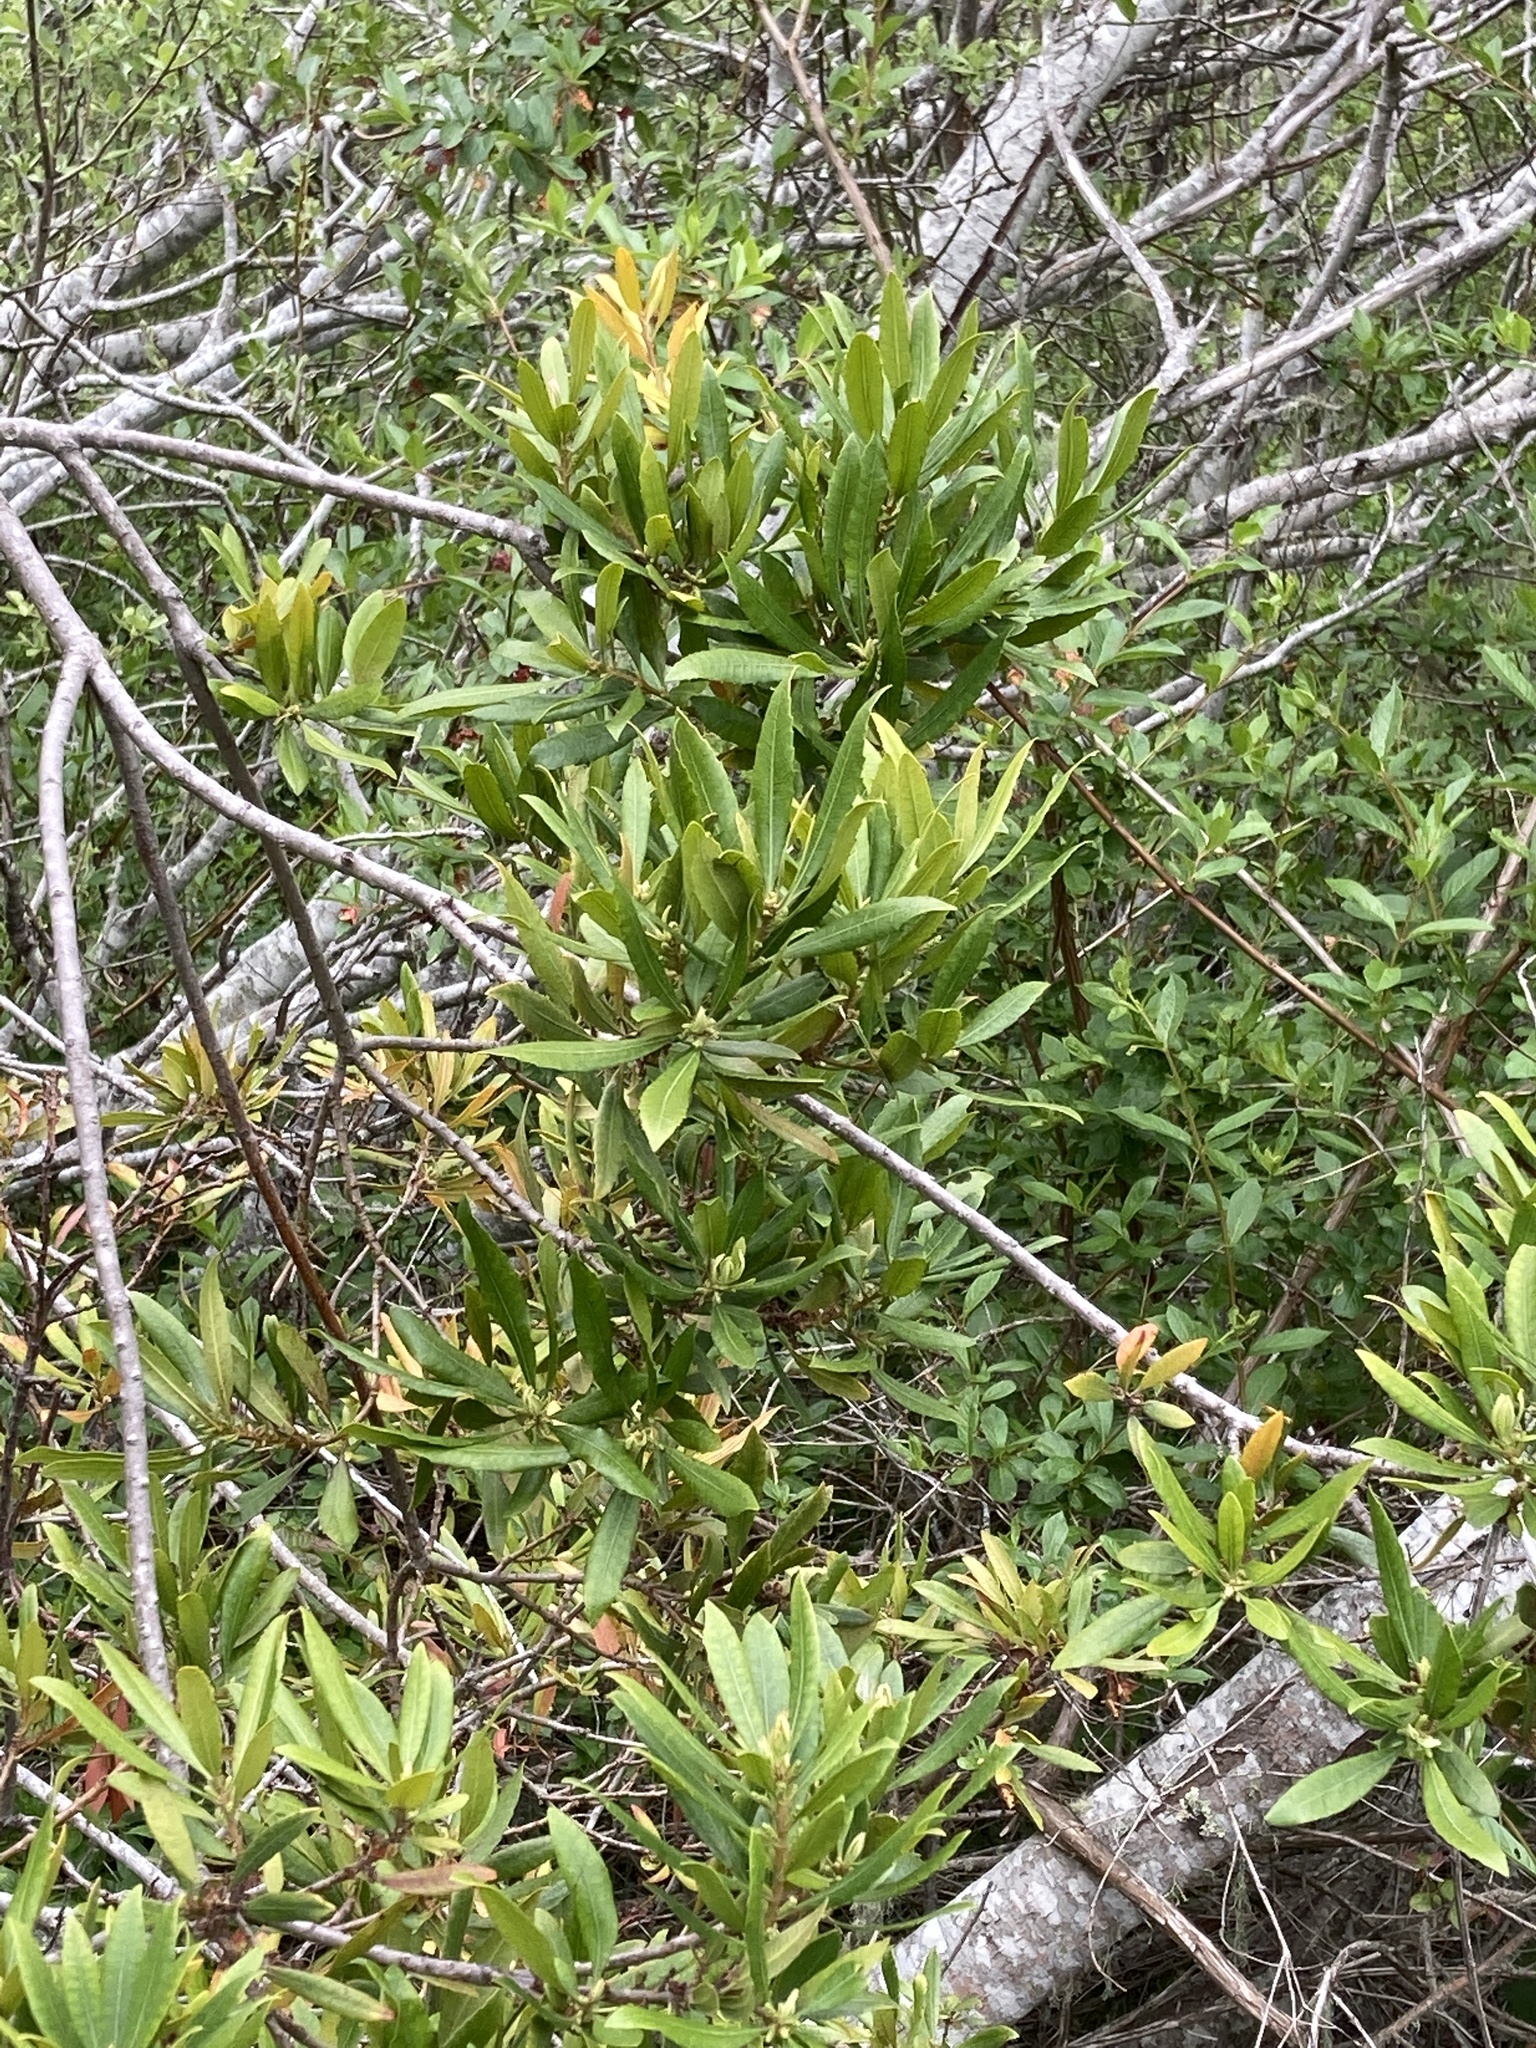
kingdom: Plantae
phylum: Tracheophyta
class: Magnoliopsida
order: Fagales
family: Myricaceae
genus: Morella
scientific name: Morella californica
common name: California wax-myrtle
